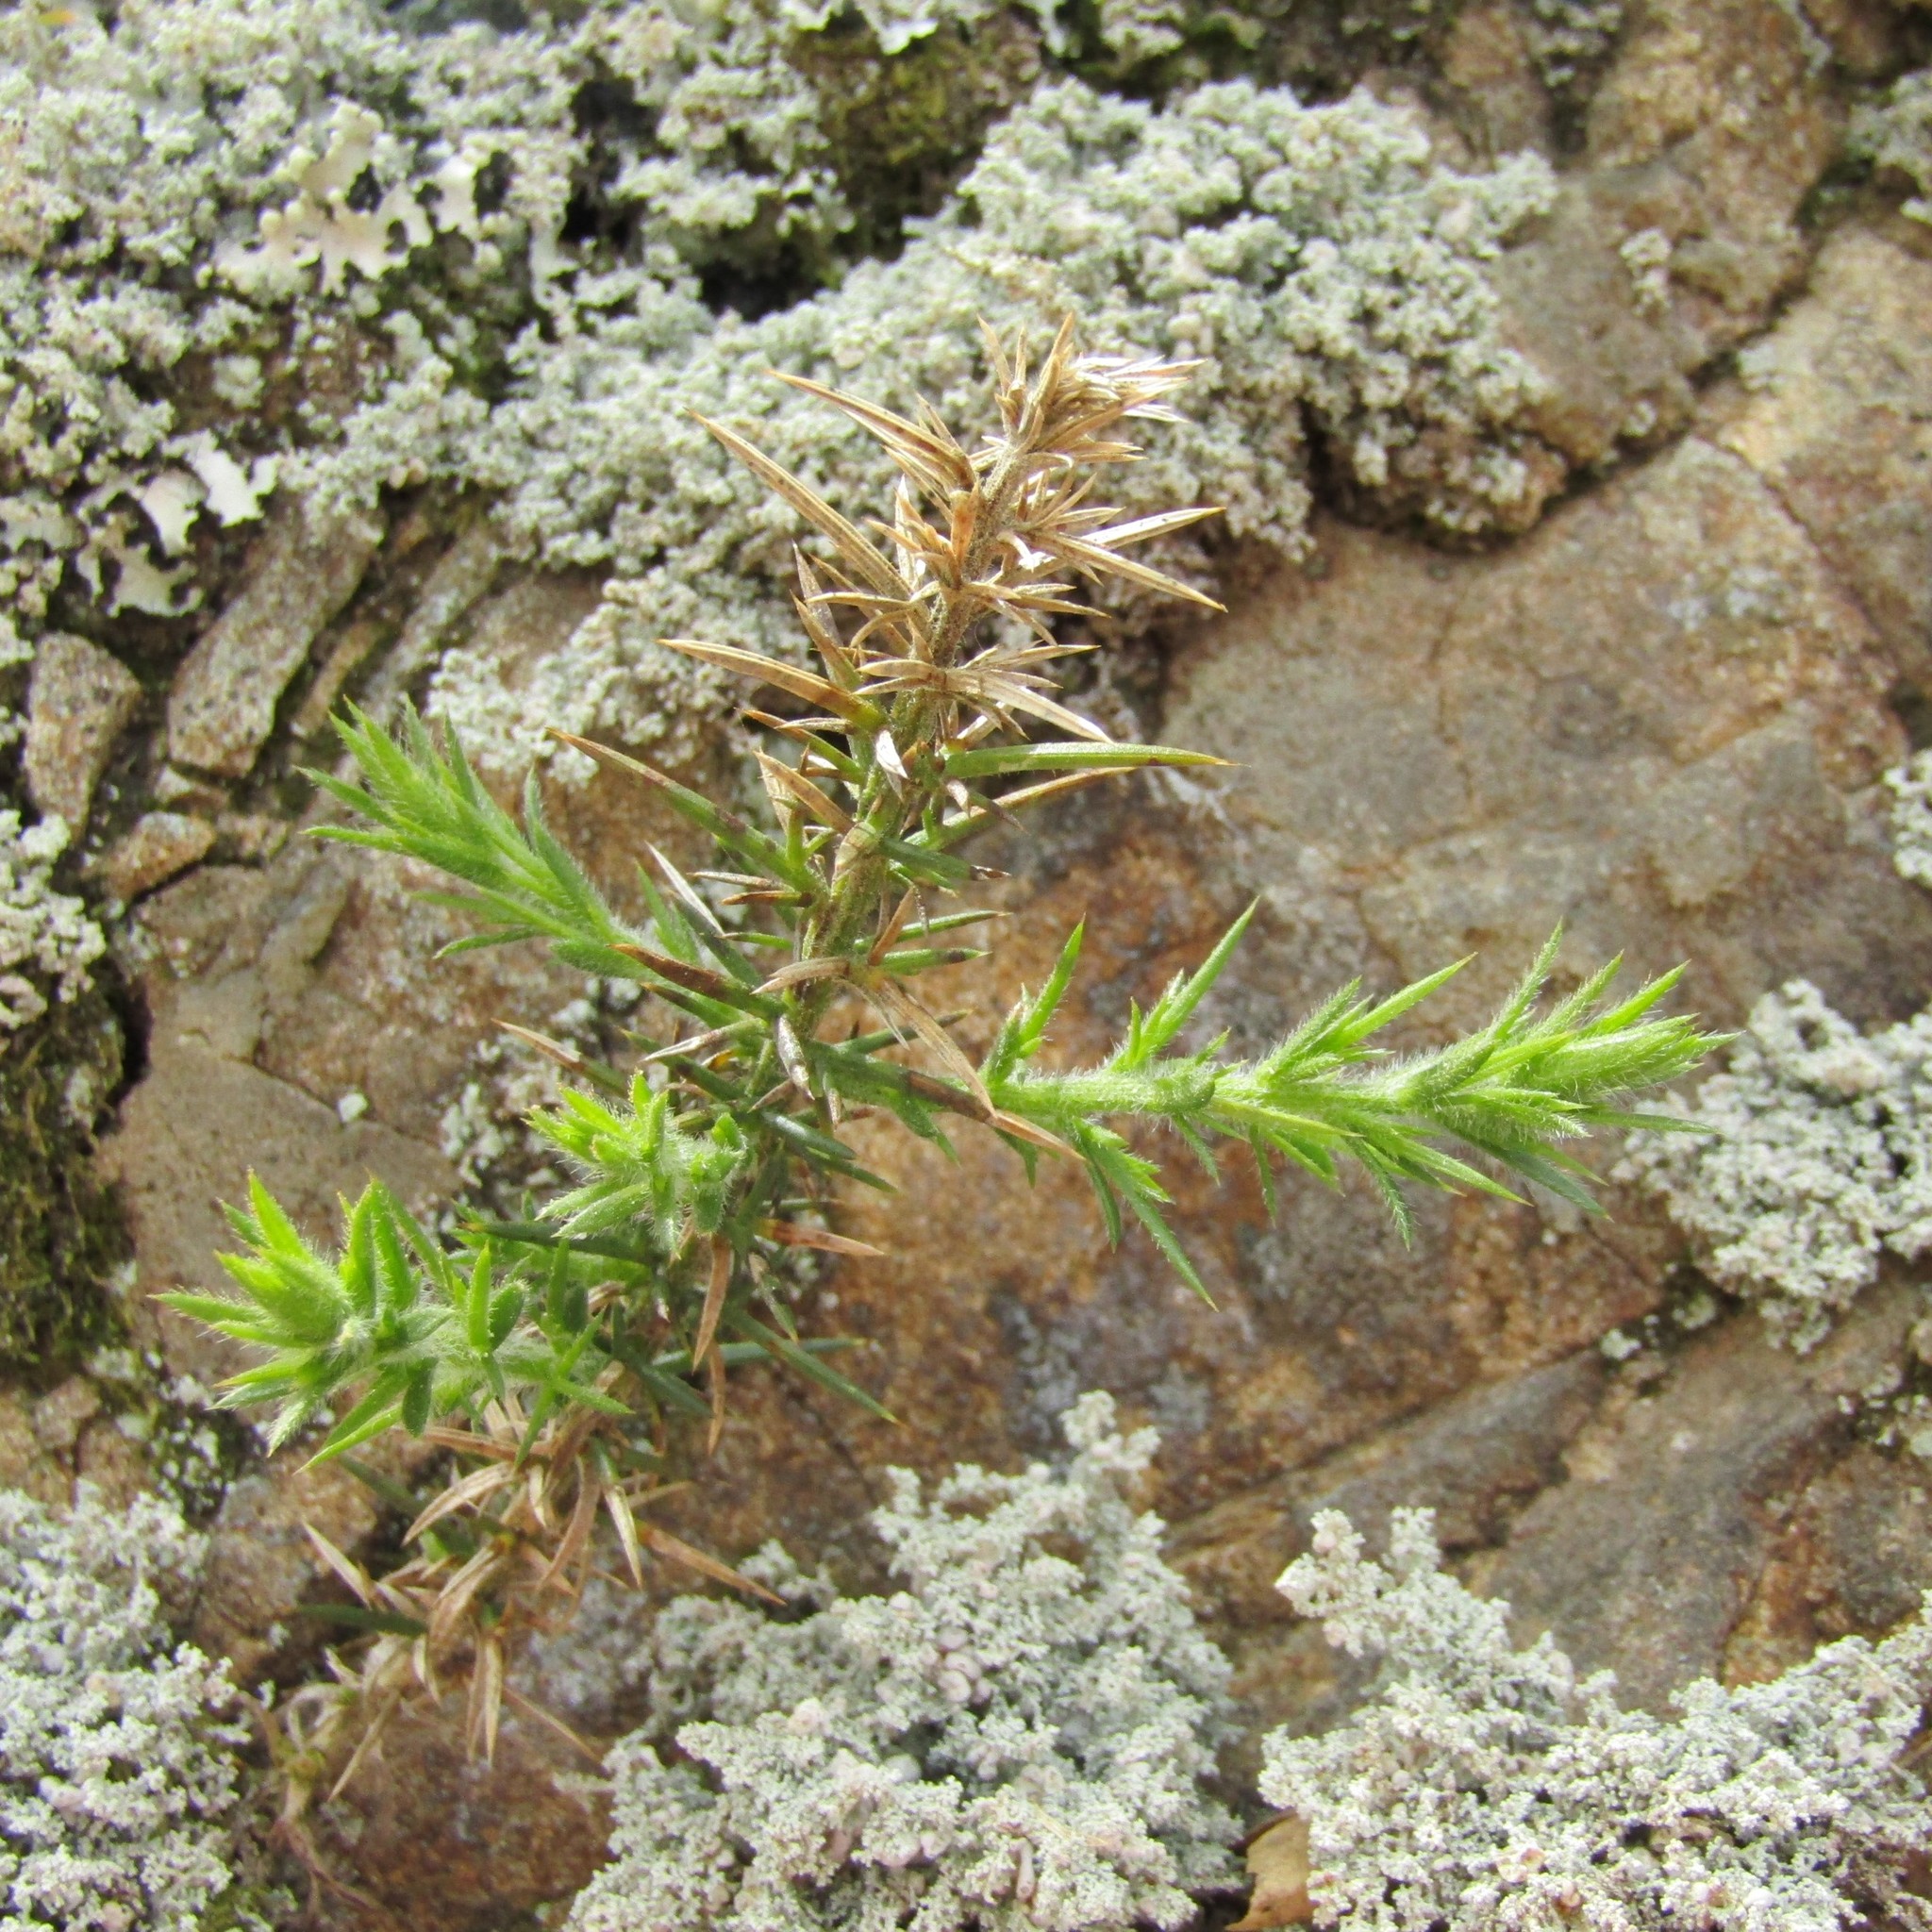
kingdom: Plantae
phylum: Tracheophyta
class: Magnoliopsida
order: Fabales
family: Fabaceae
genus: Ulex
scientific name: Ulex europaeus
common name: Common gorse
